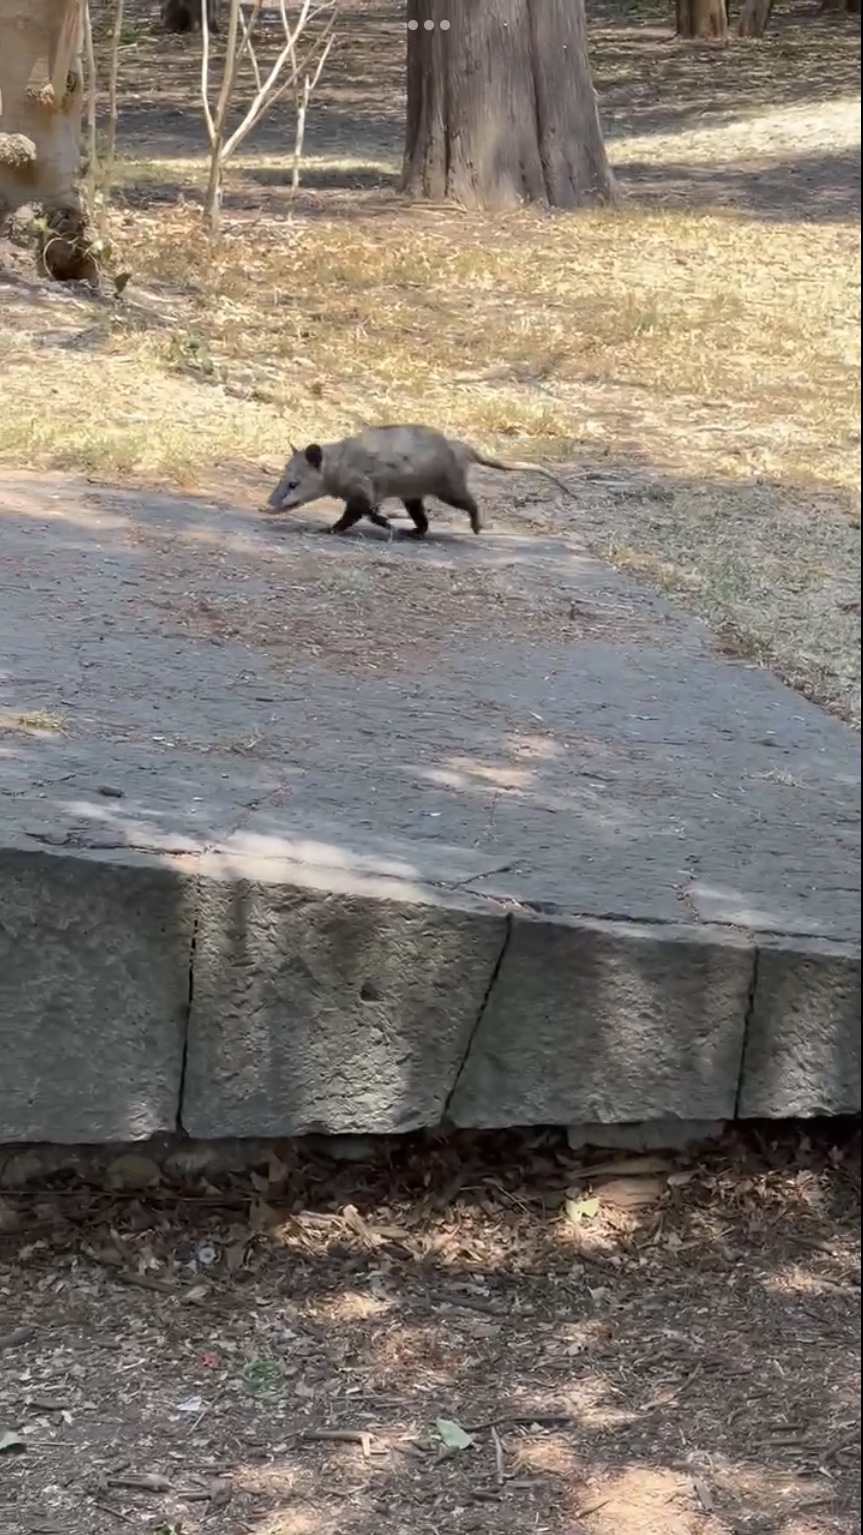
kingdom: Animalia
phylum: Chordata
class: Mammalia
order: Didelphimorphia
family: Didelphidae
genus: Didelphis
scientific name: Didelphis virginiana
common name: Virginia opossum
